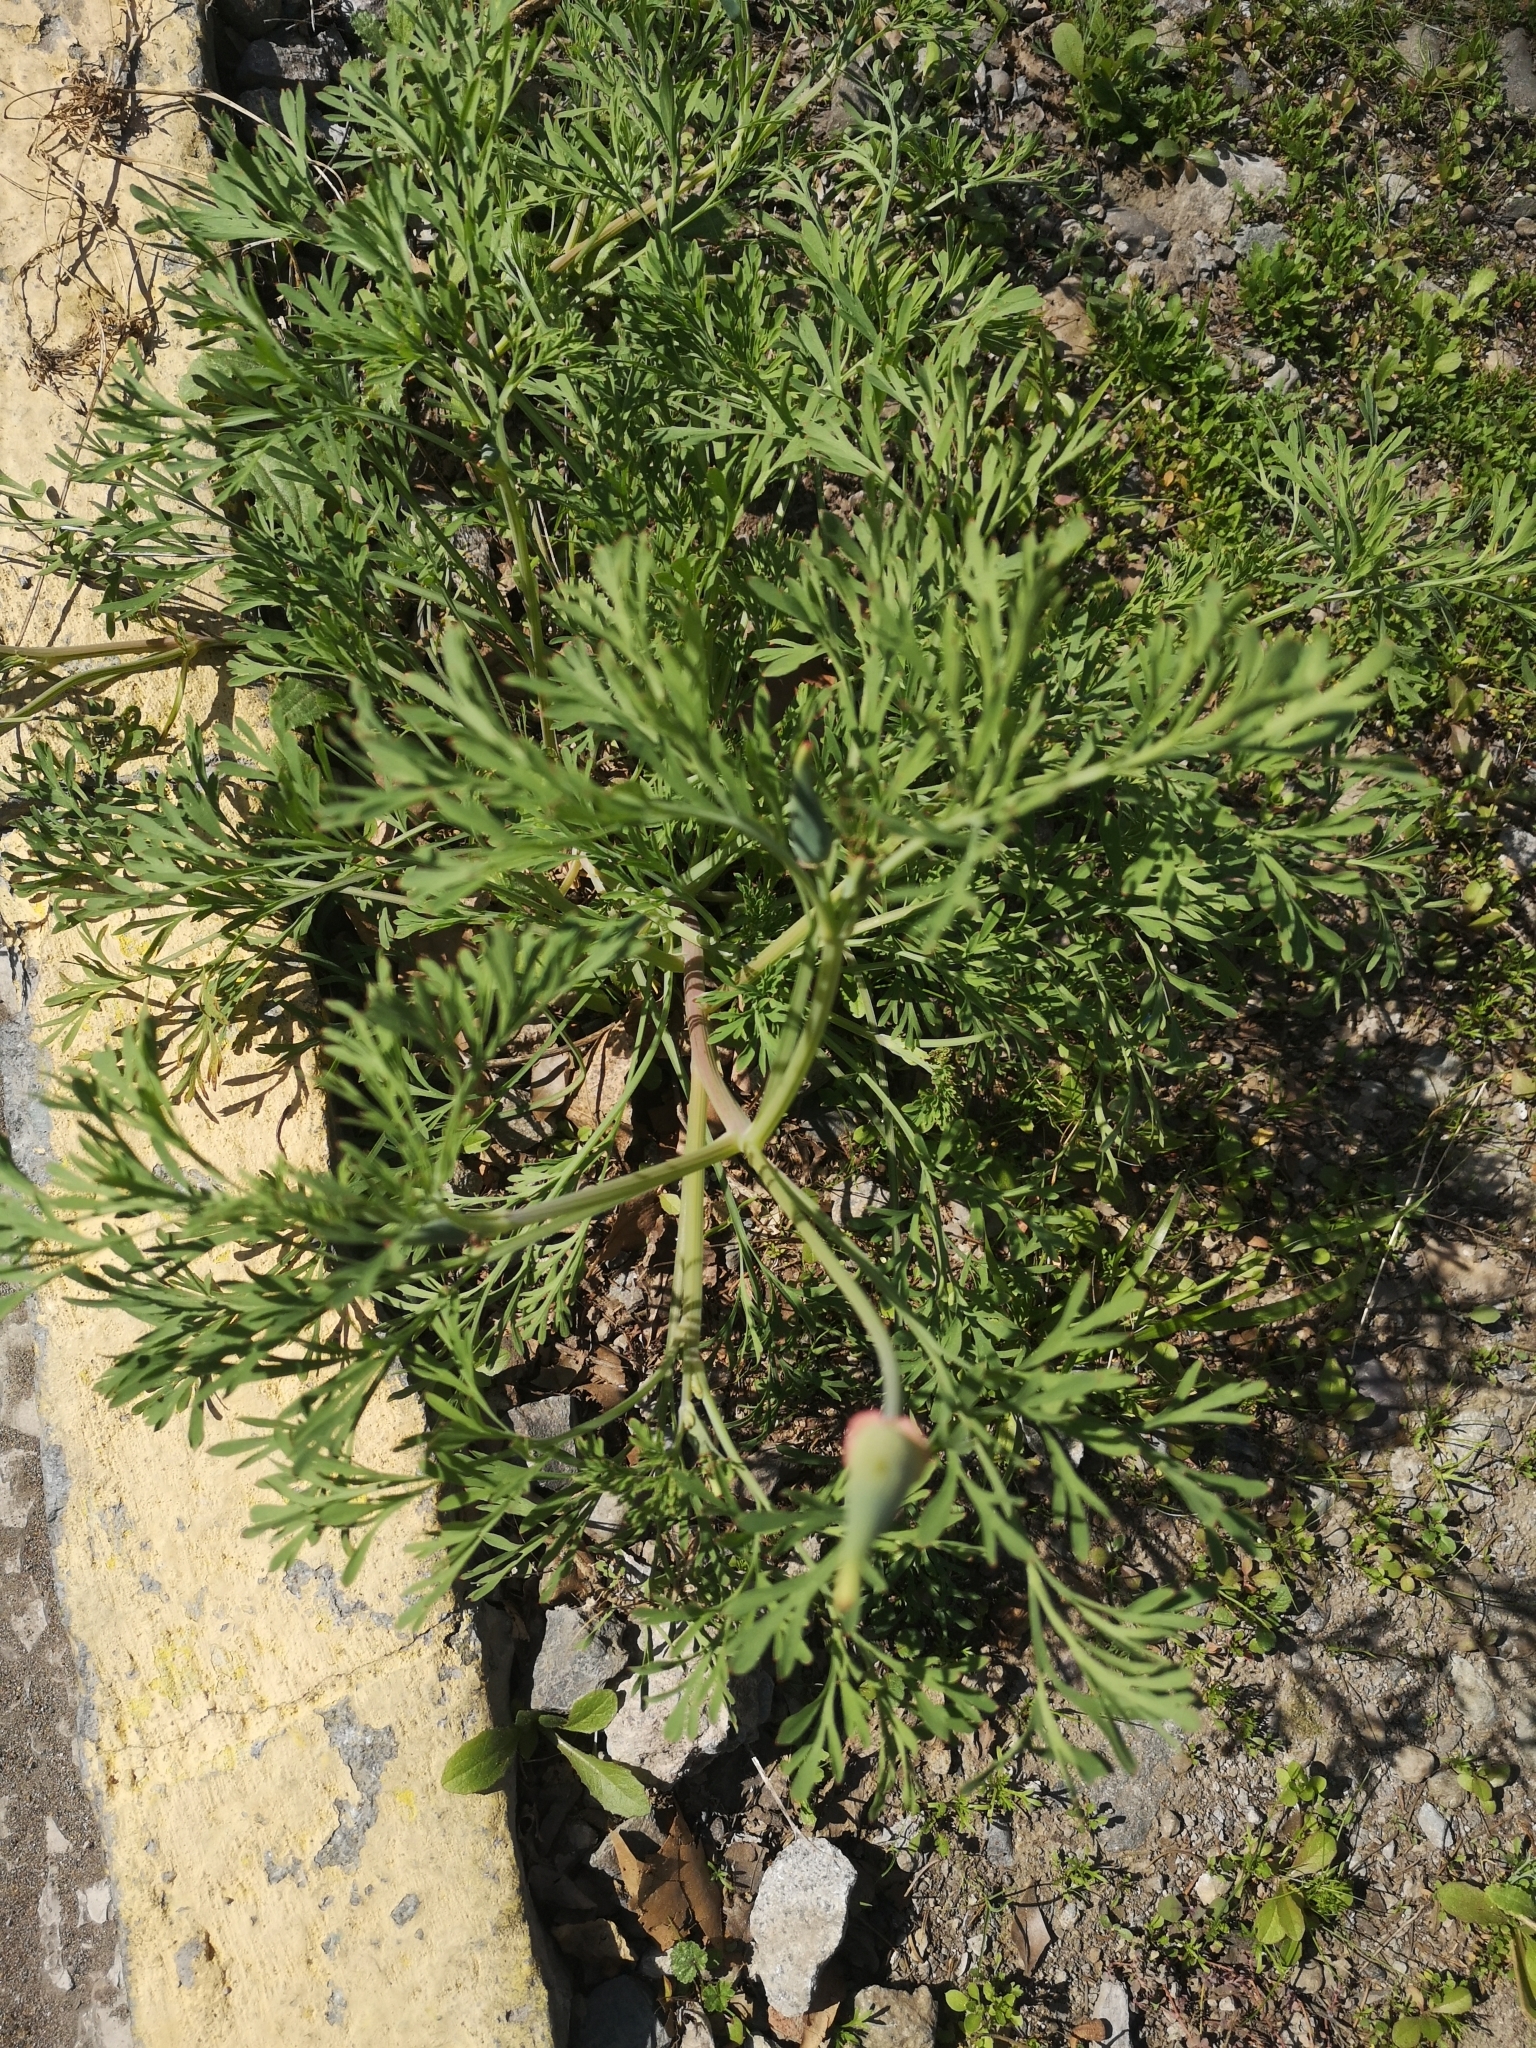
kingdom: Plantae
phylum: Tracheophyta
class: Magnoliopsida
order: Ranunculales
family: Papaveraceae
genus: Eschscholzia
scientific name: Eschscholzia californica
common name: California poppy
